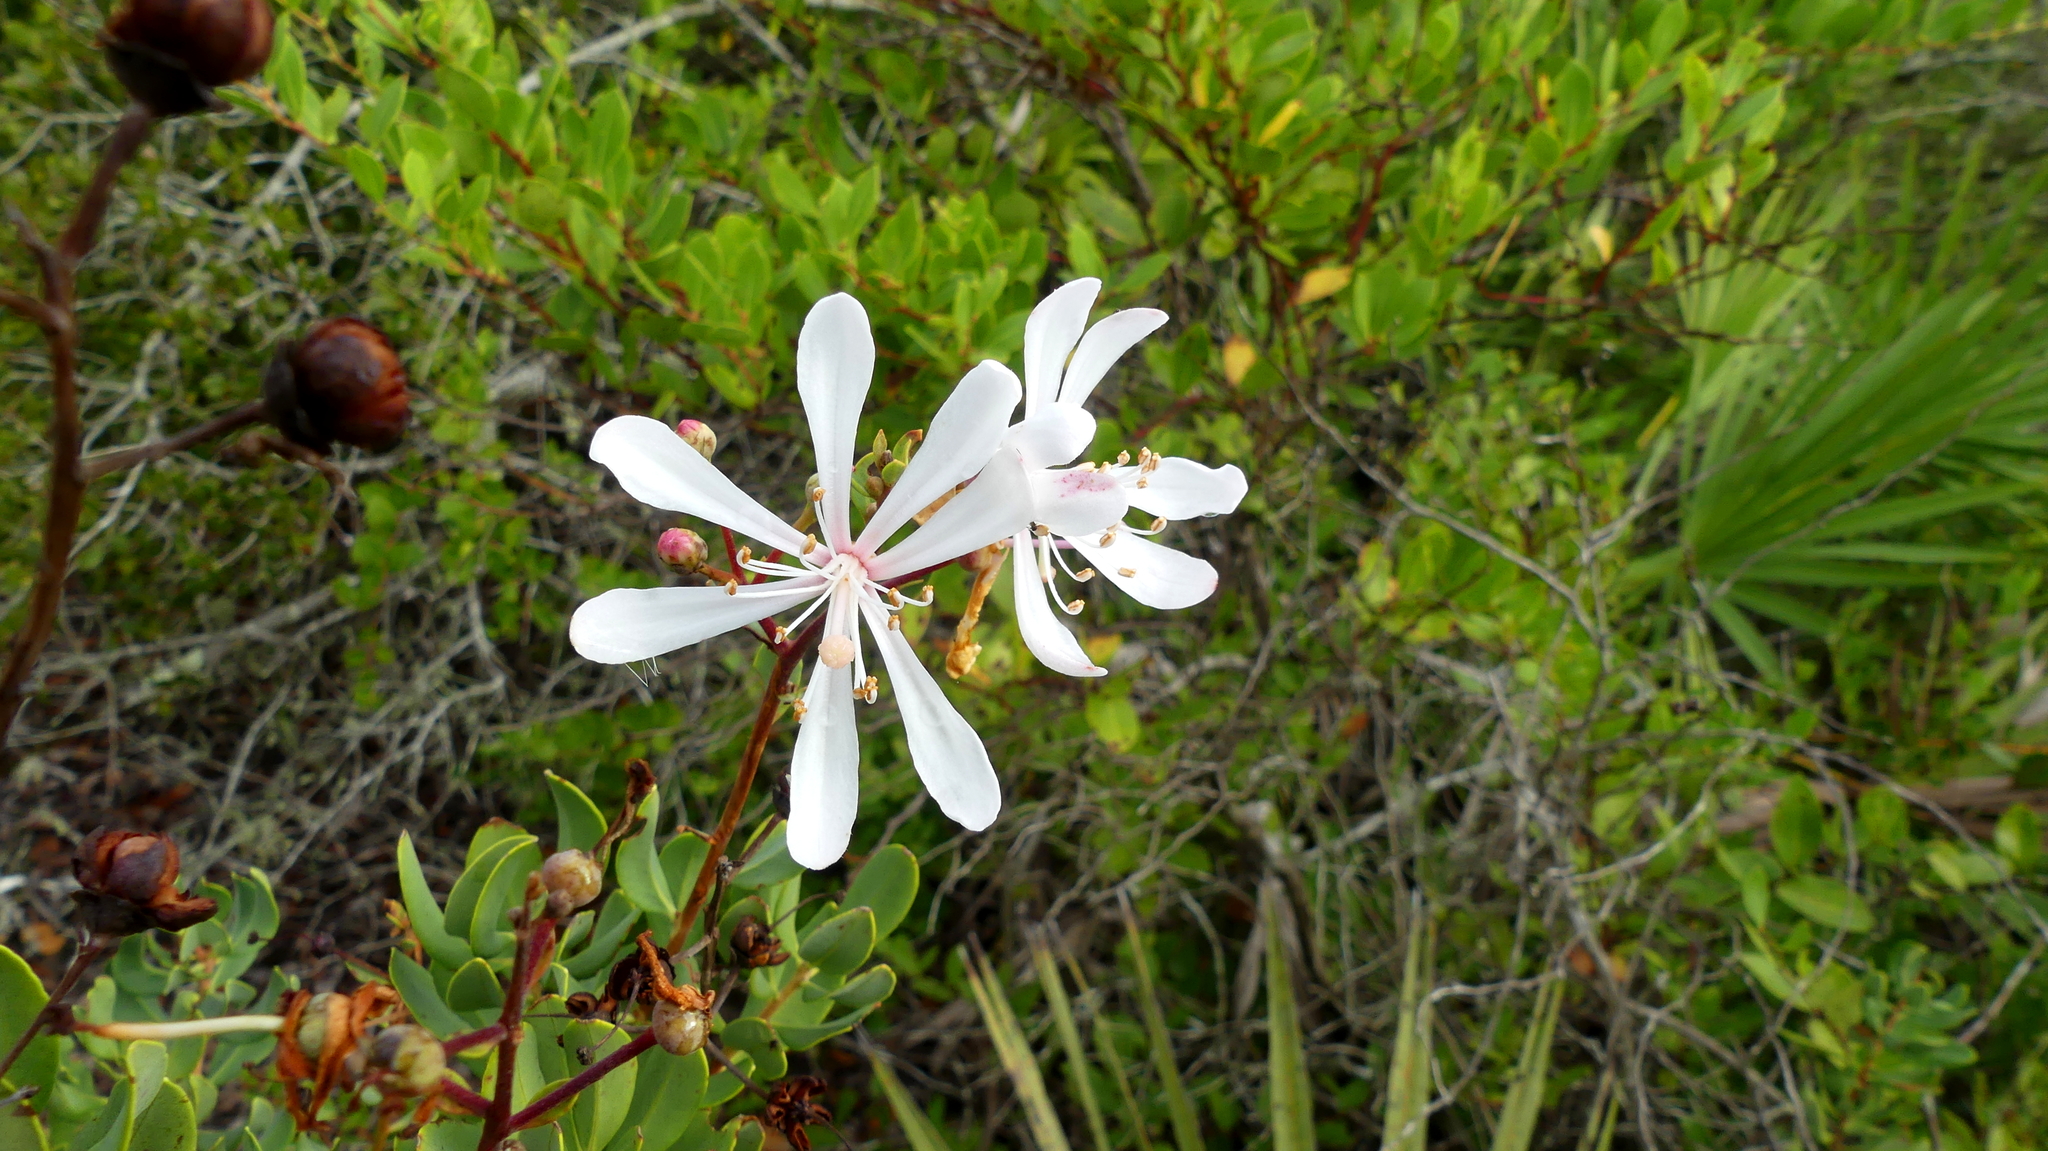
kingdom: Plantae
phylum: Tracheophyta
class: Magnoliopsida
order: Ericales
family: Ericaceae
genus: Bejaria
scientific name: Bejaria racemosa
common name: Tarflower
